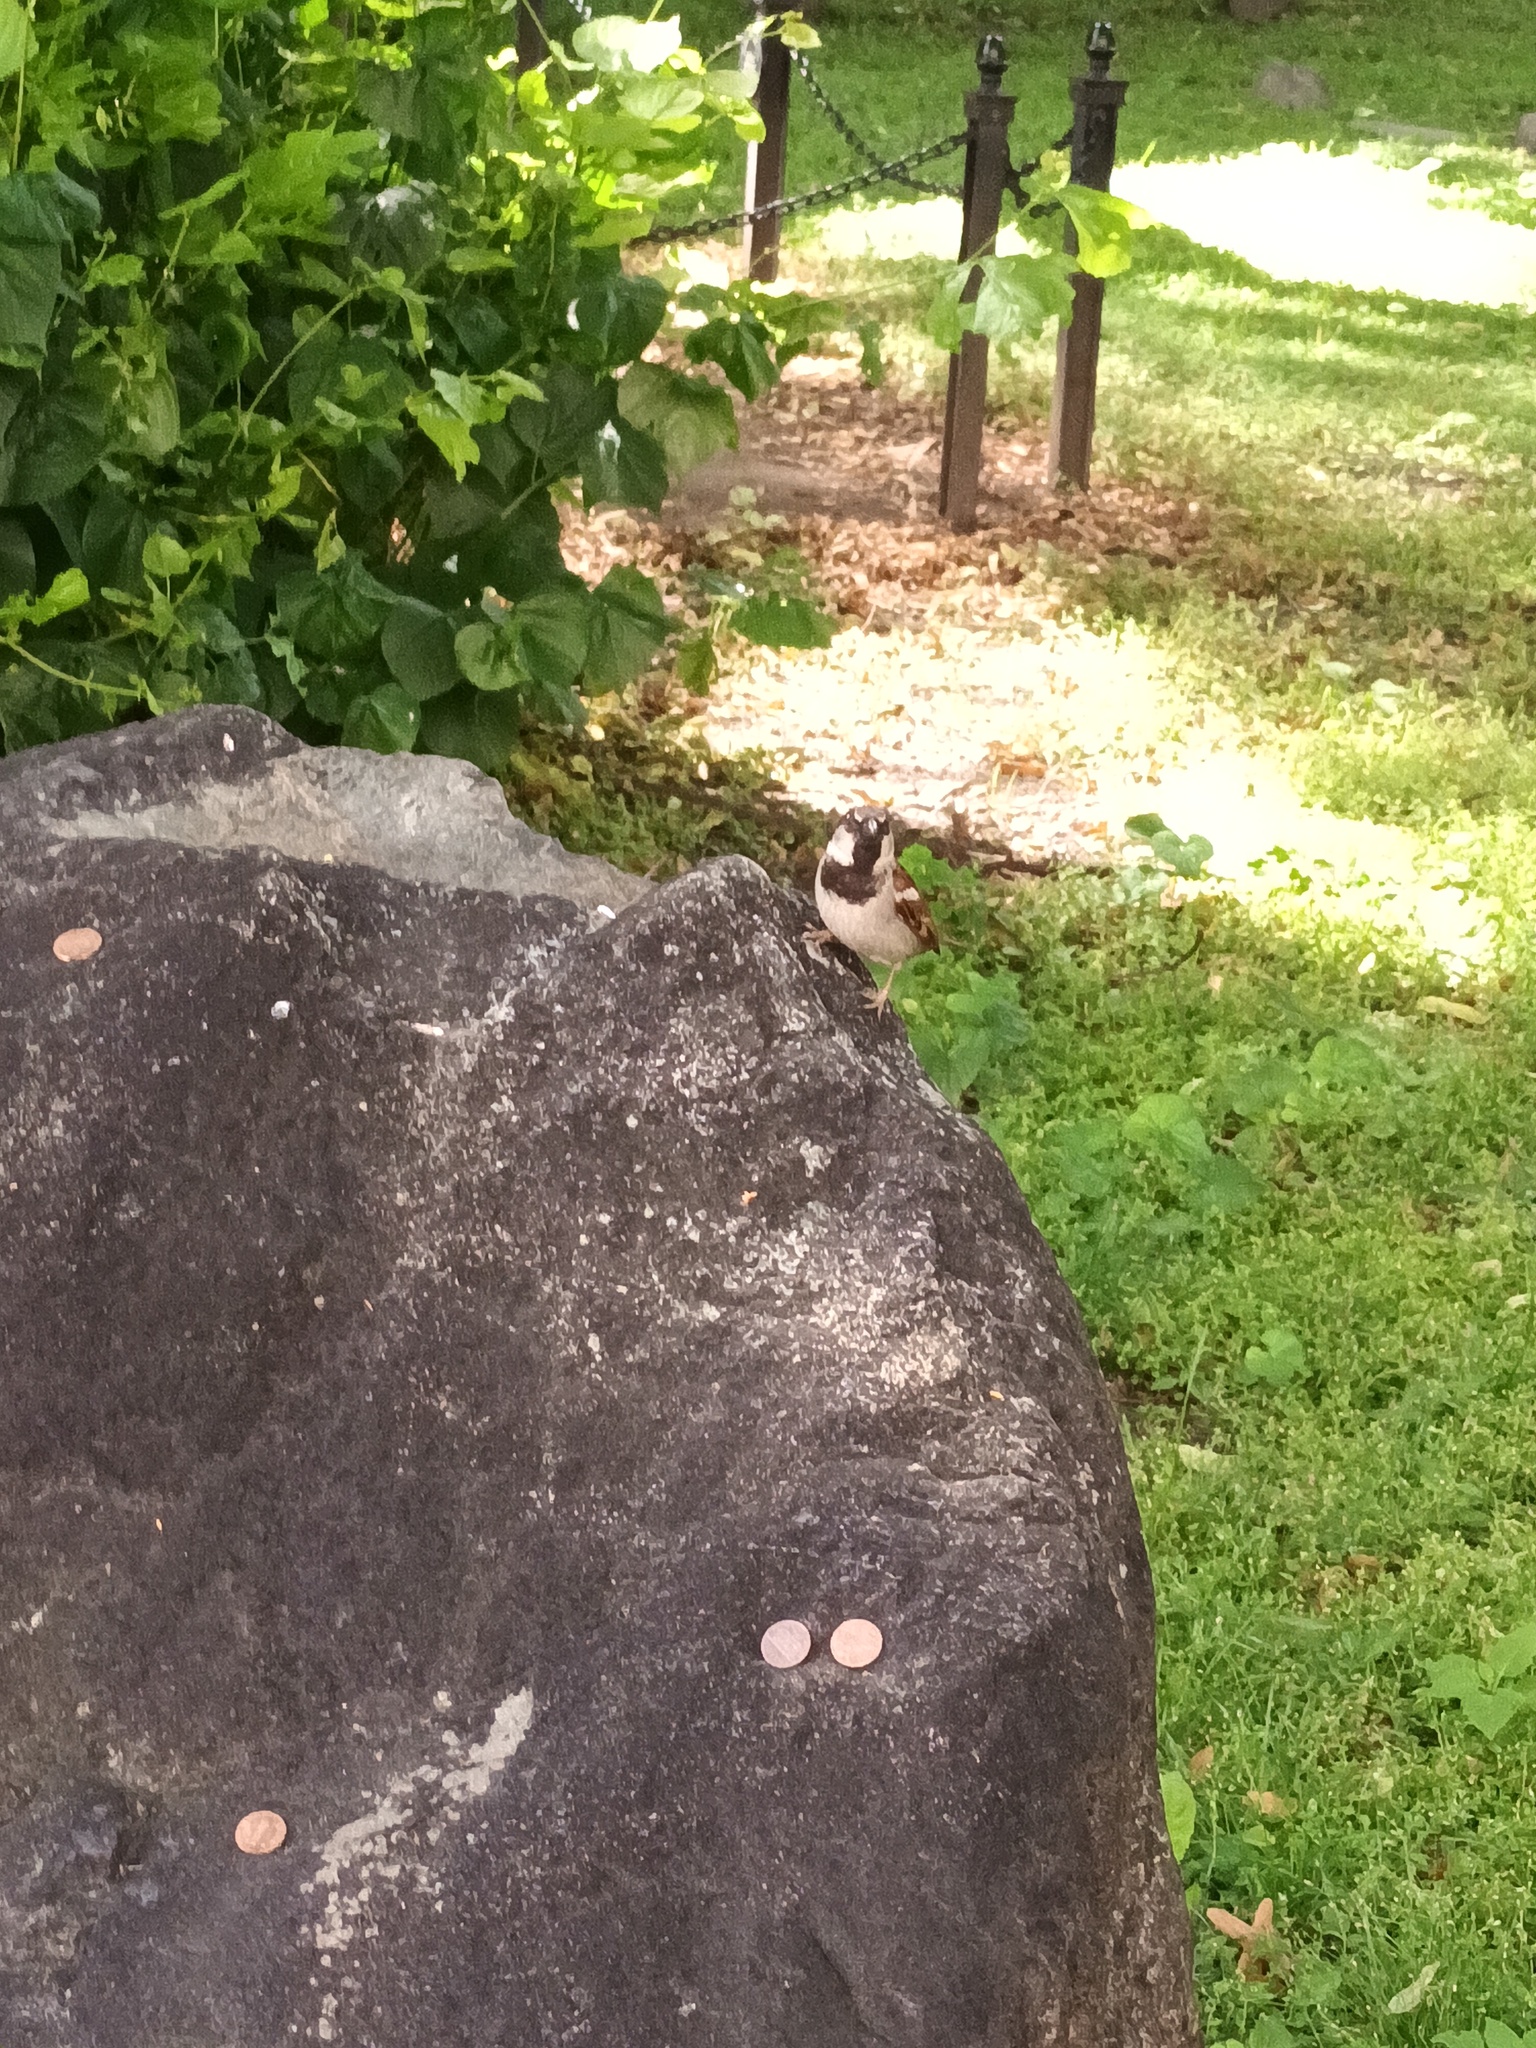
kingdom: Animalia
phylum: Chordata
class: Aves
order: Passeriformes
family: Passeridae
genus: Passer
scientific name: Passer domesticus
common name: House sparrow
